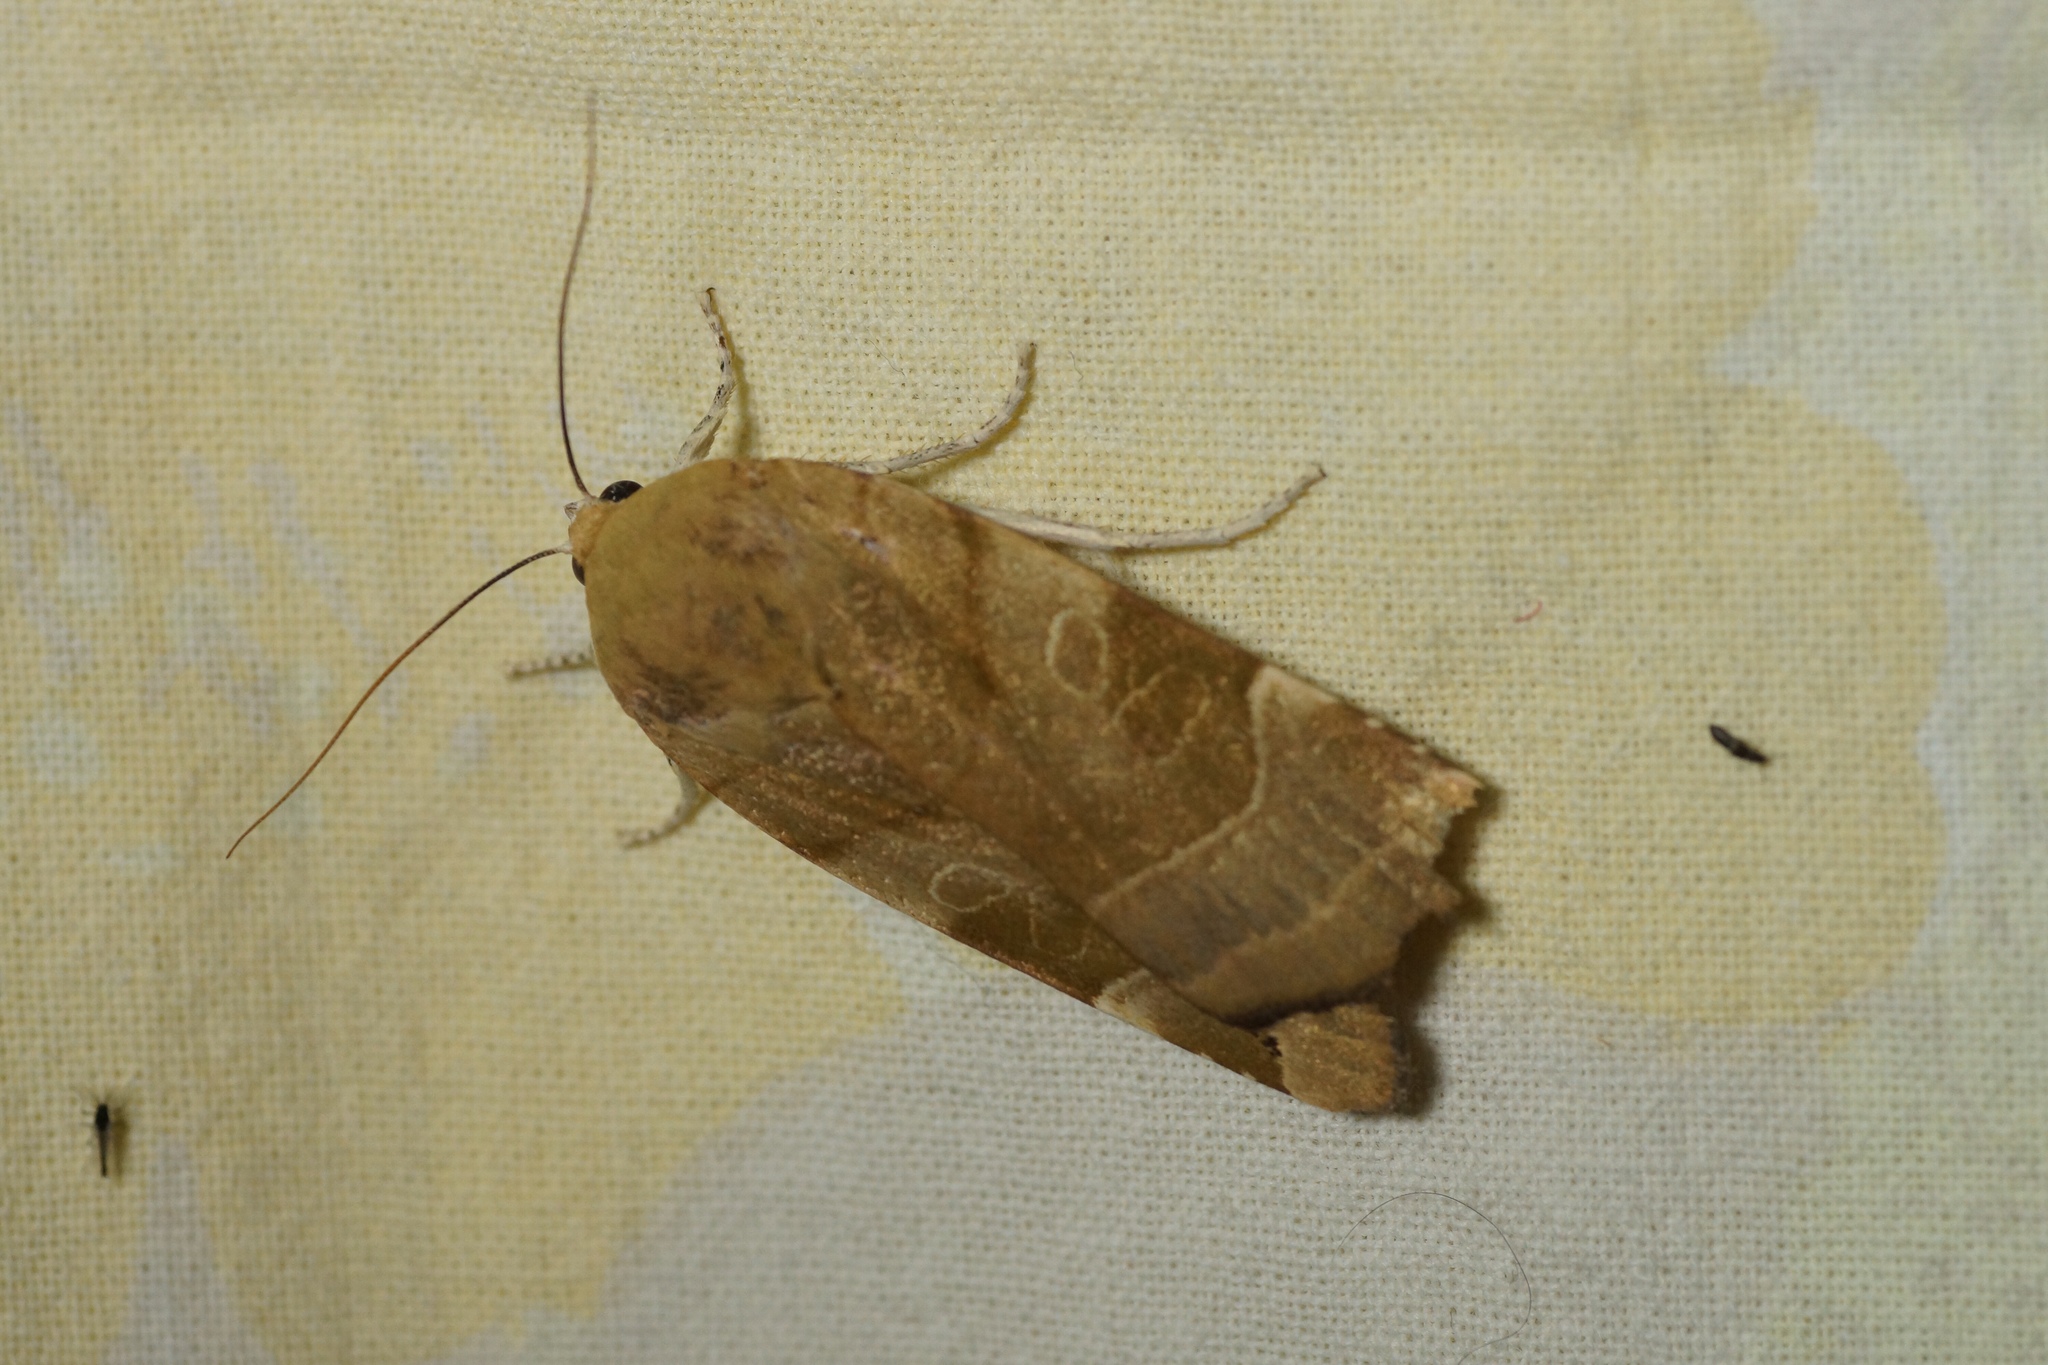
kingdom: Animalia
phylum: Arthropoda
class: Insecta
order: Lepidoptera
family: Noctuidae
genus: Noctua
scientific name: Noctua fimbriata
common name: Broad-bordered yellow underwing
